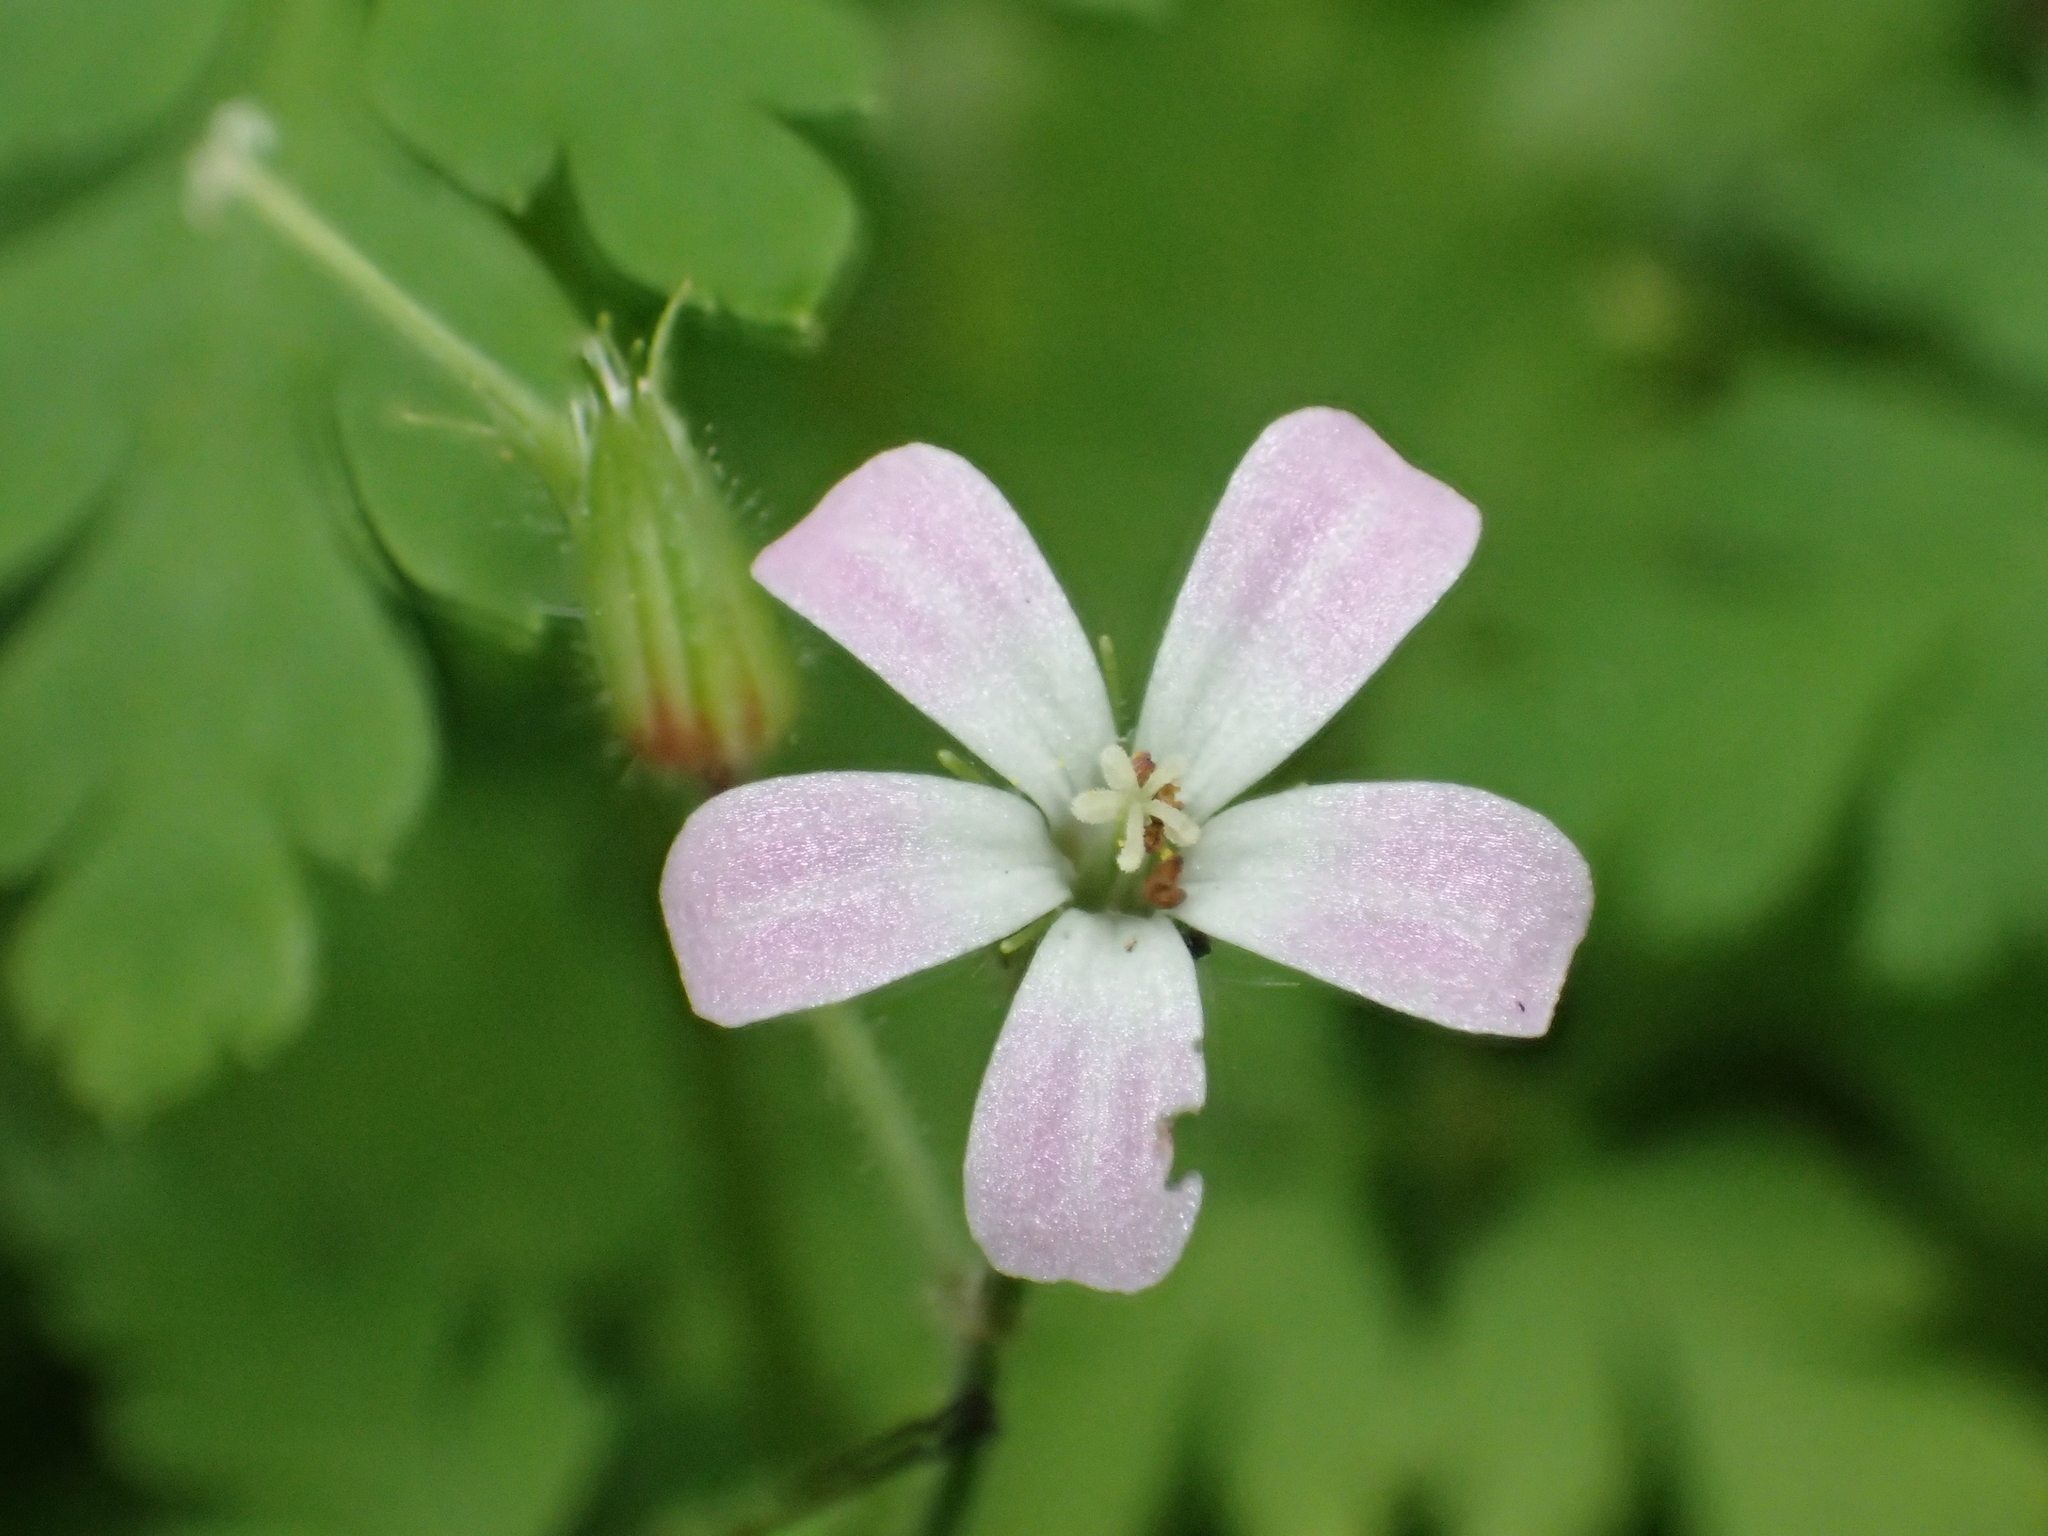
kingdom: Plantae
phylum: Tracheophyta
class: Magnoliopsida
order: Geraniales
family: Geraniaceae
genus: Geranium
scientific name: Geranium robertianum
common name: Herb-robert
